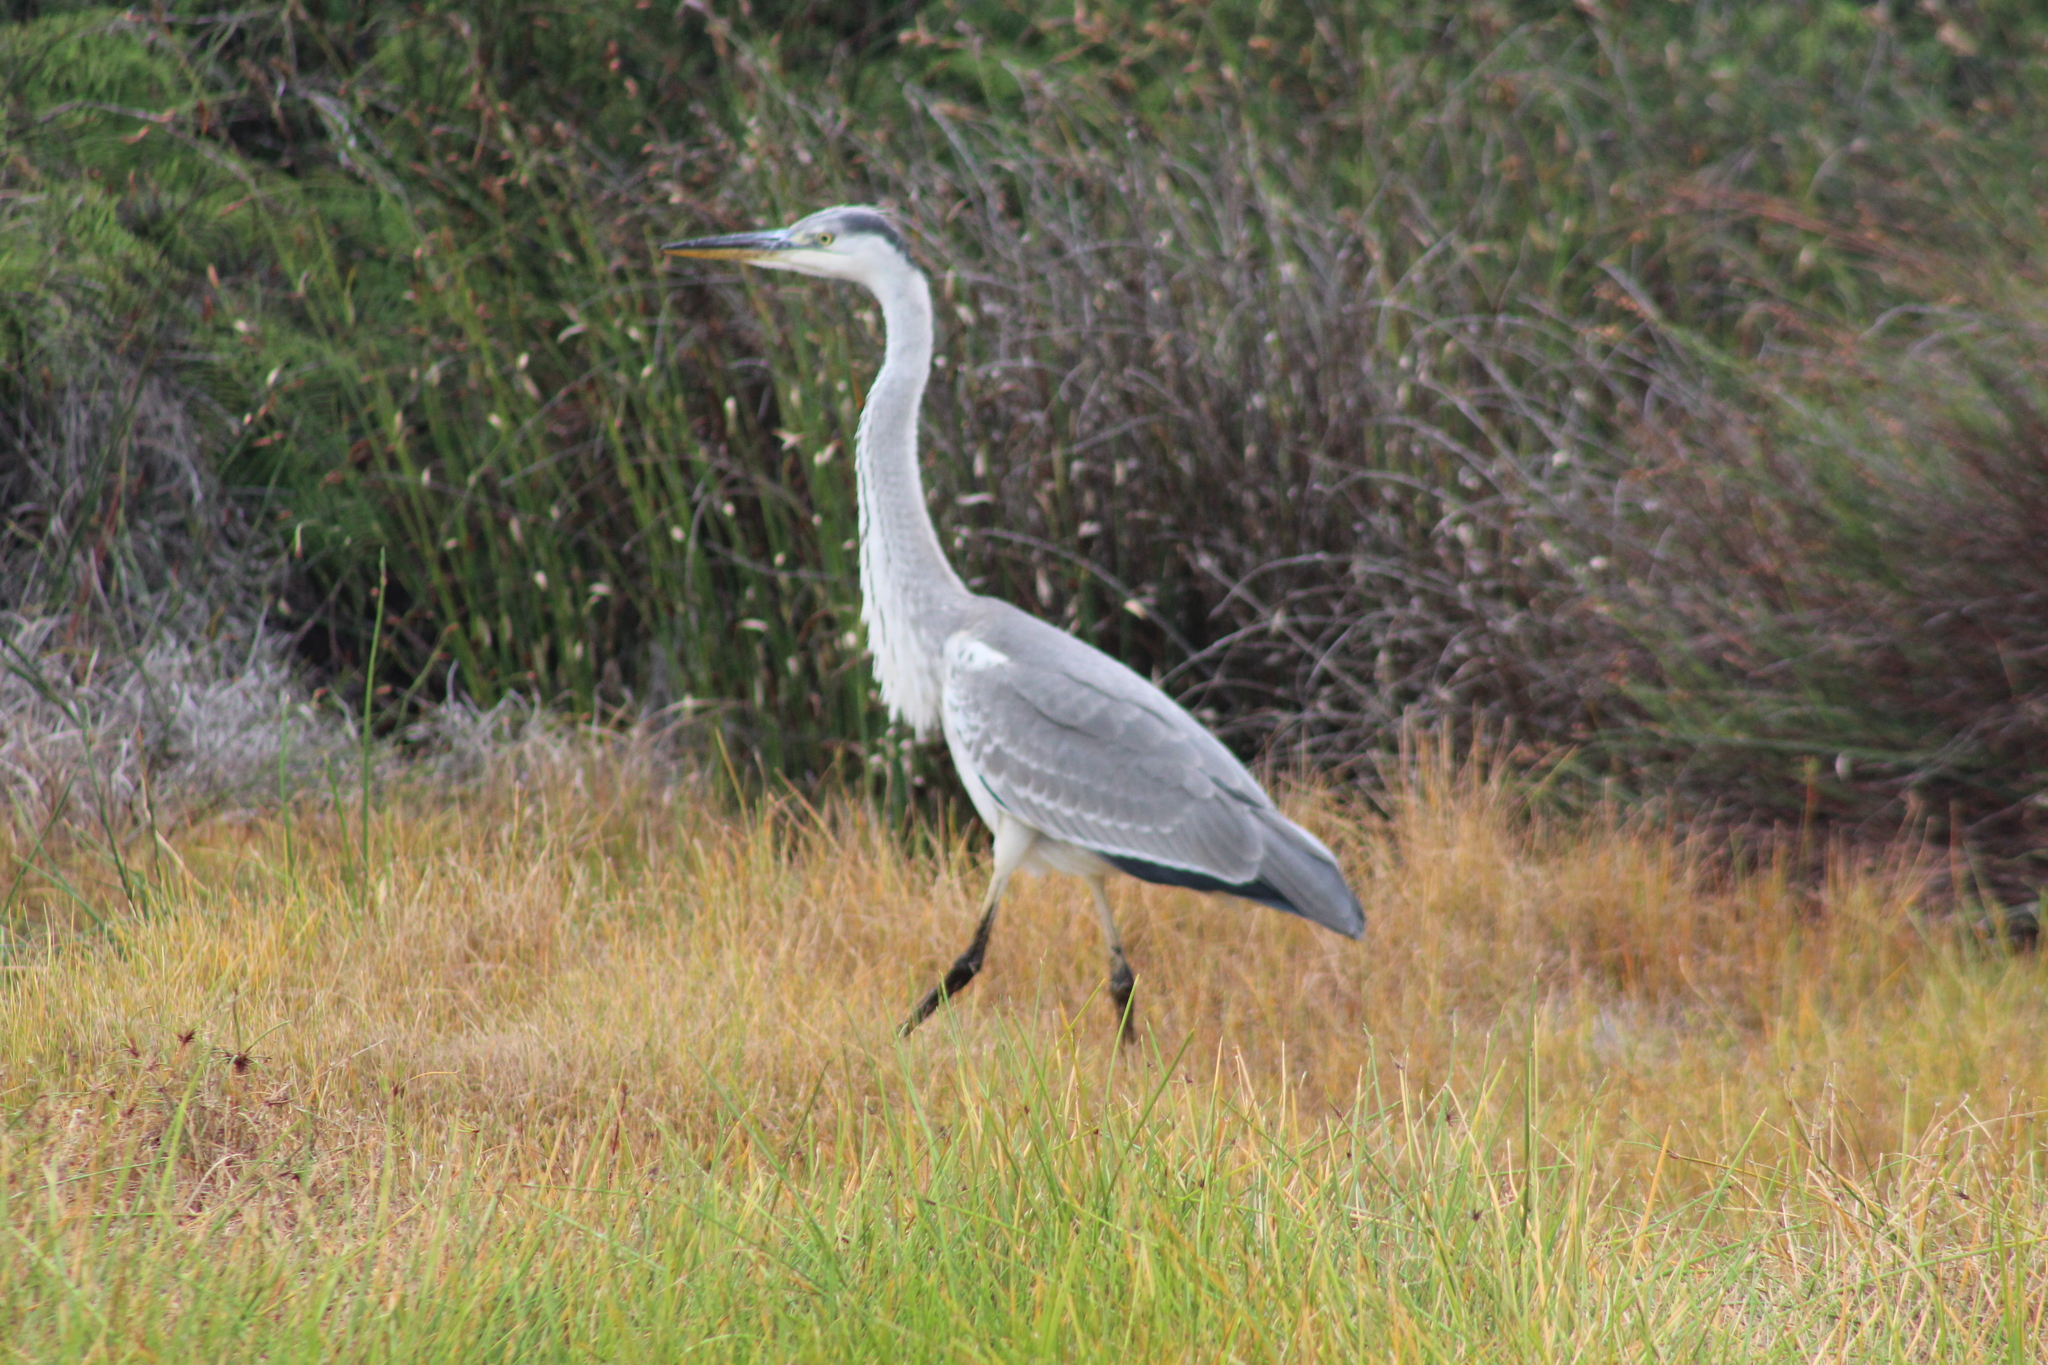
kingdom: Animalia
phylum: Chordata
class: Aves
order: Pelecaniformes
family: Ardeidae
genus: Ardea
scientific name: Ardea cinerea
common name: Grey heron
